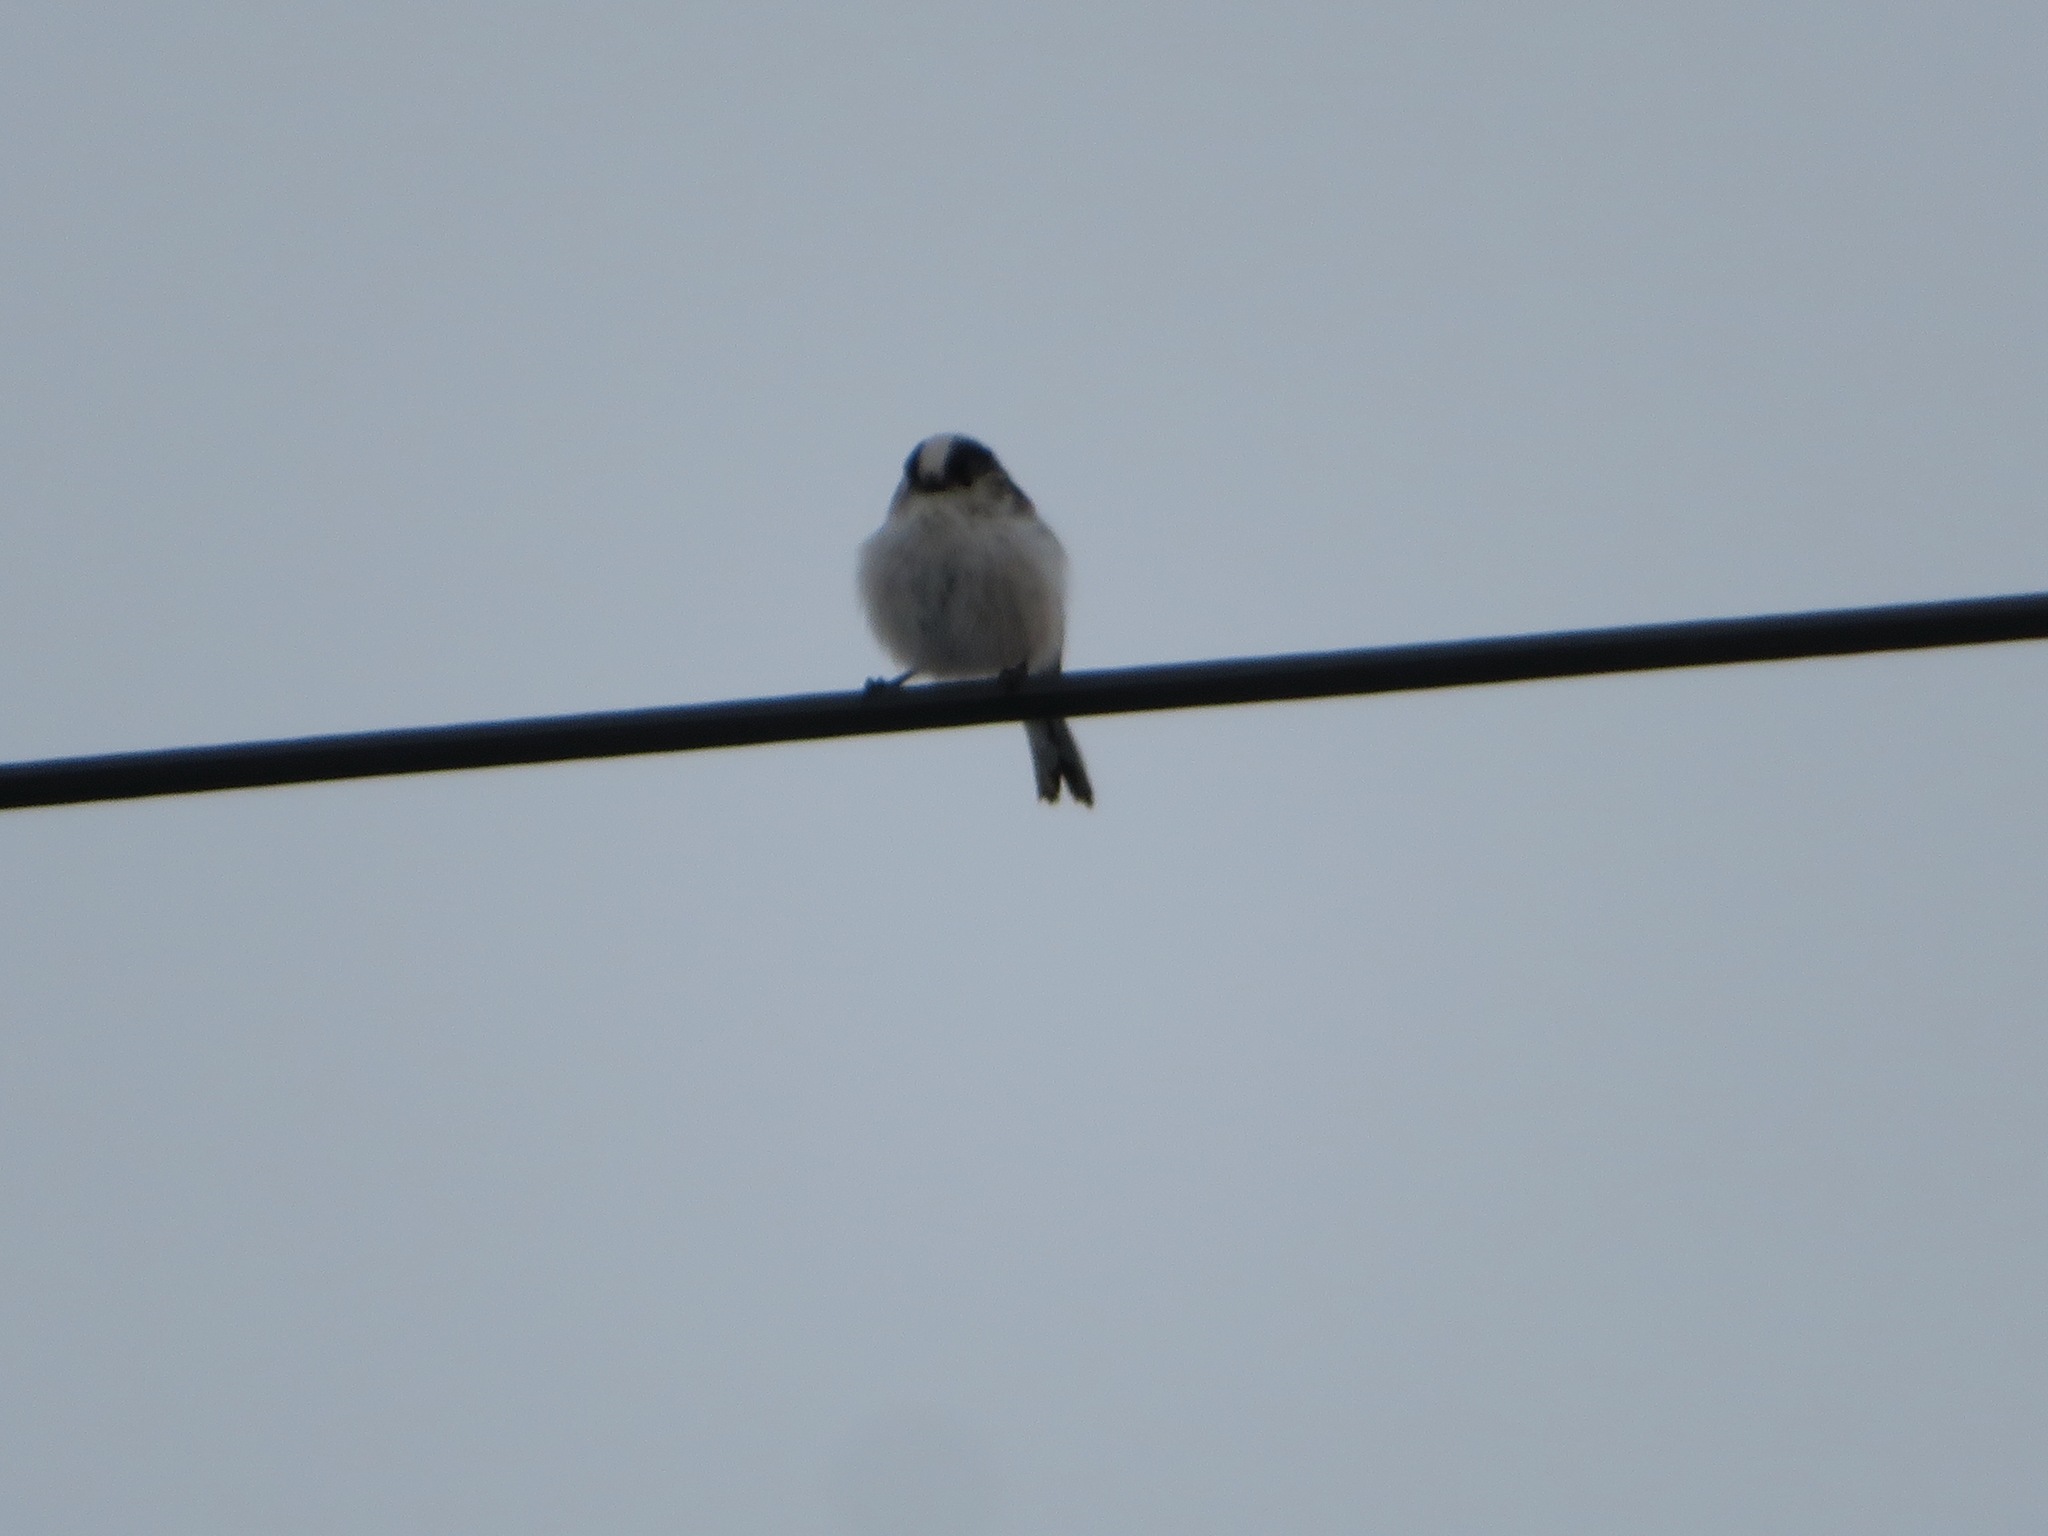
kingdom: Animalia
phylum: Chordata
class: Aves
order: Passeriformes
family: Aegithalidae
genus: Aegithalos
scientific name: Aegithalos caudatus
